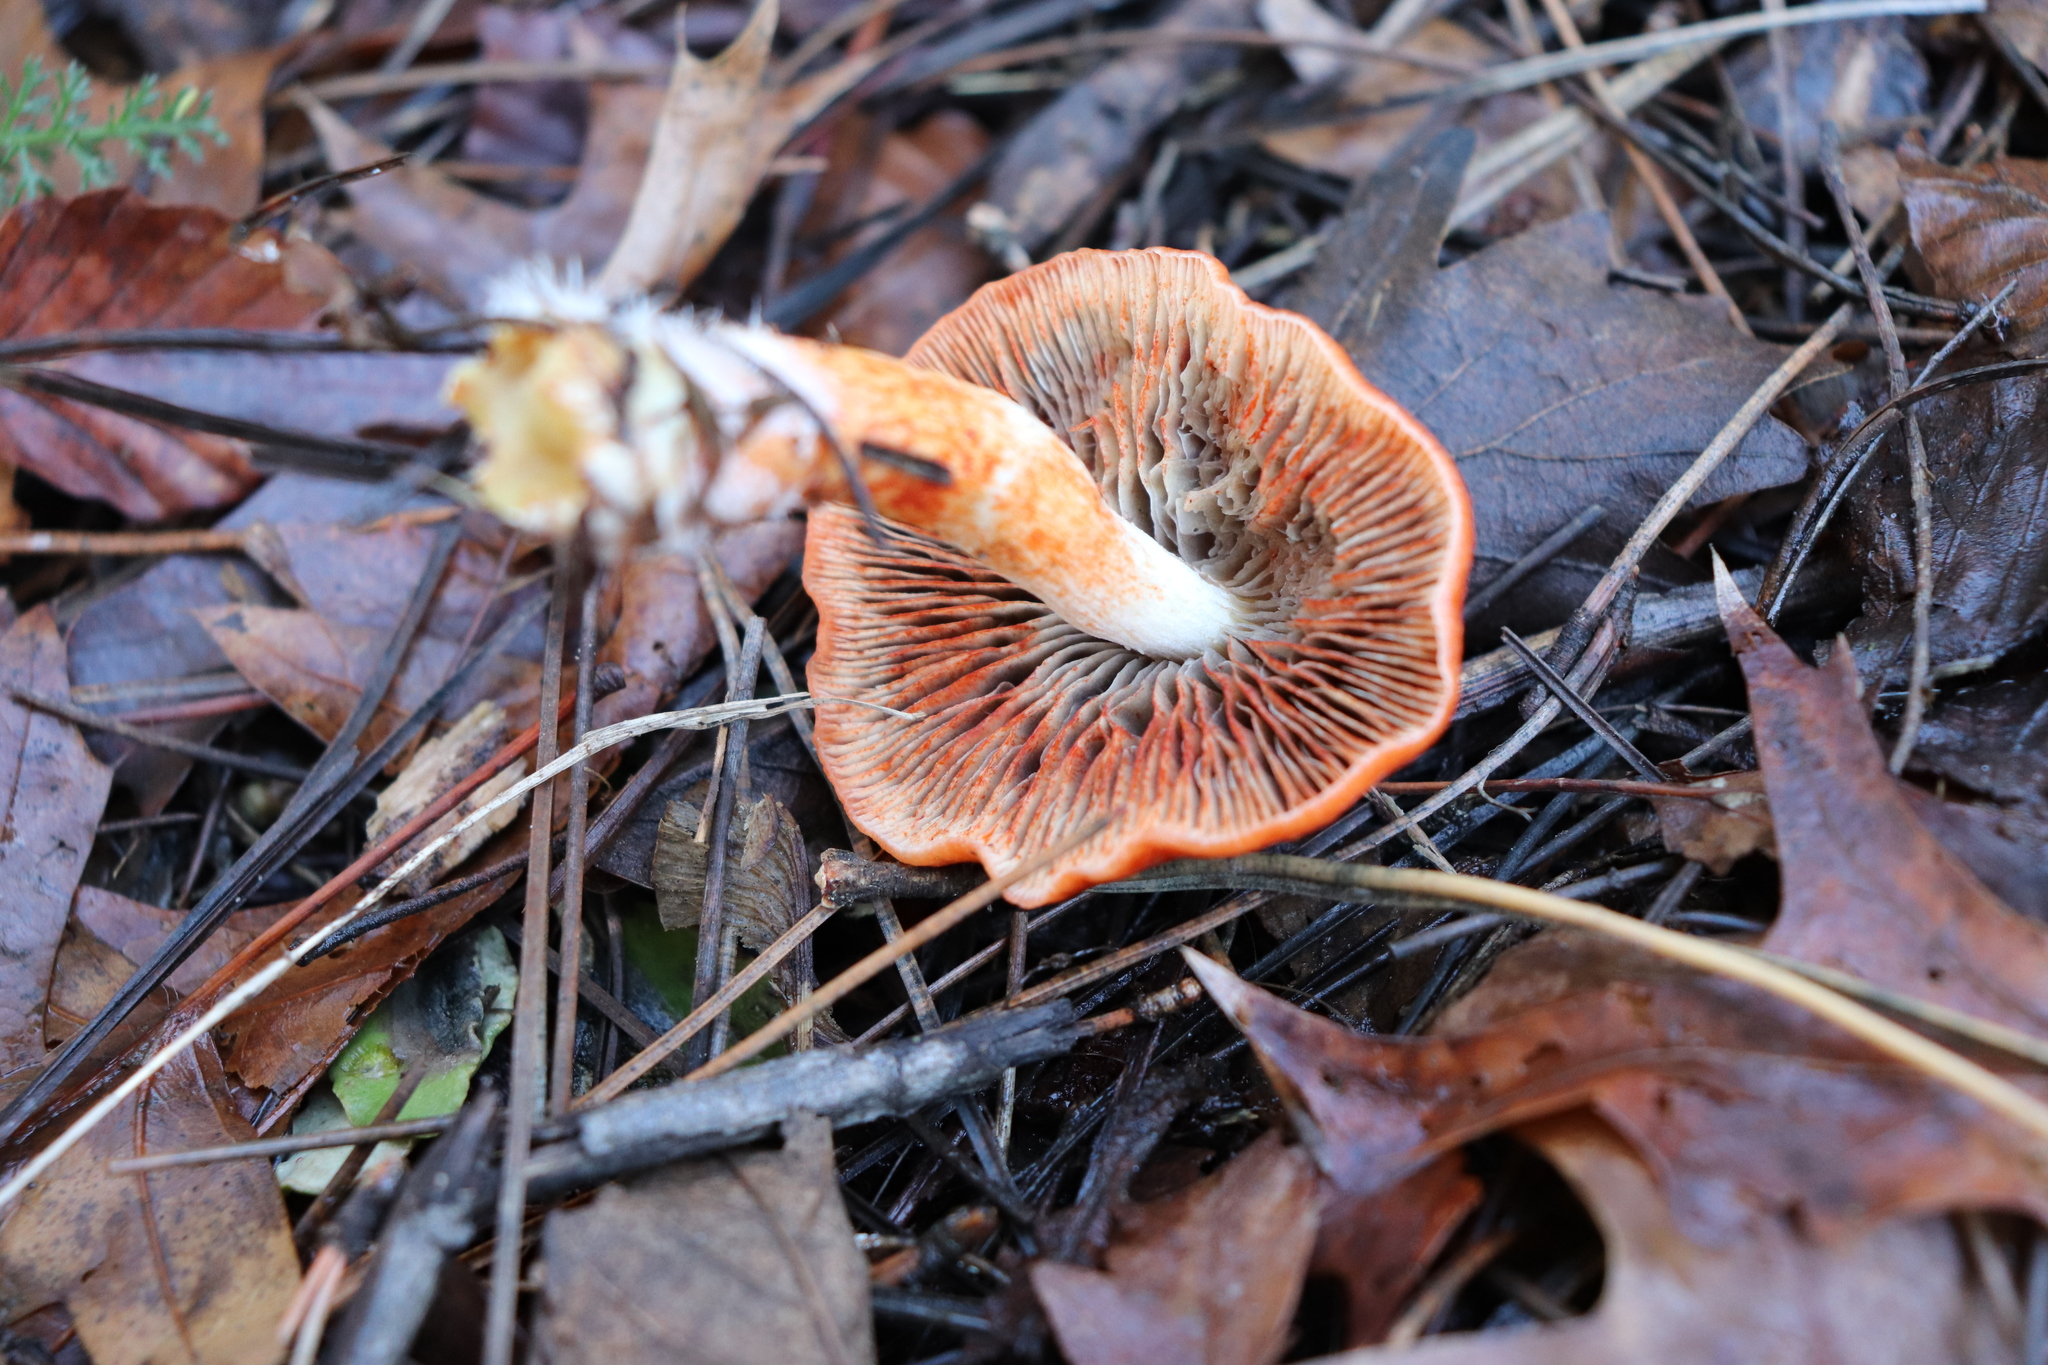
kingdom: Fungi
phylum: Basidiomycota
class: Agaricomycetes
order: Agaricales
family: Strophariaceae
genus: Leratiomyces
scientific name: Leratiomyces ceres
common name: Redlead roundhead
